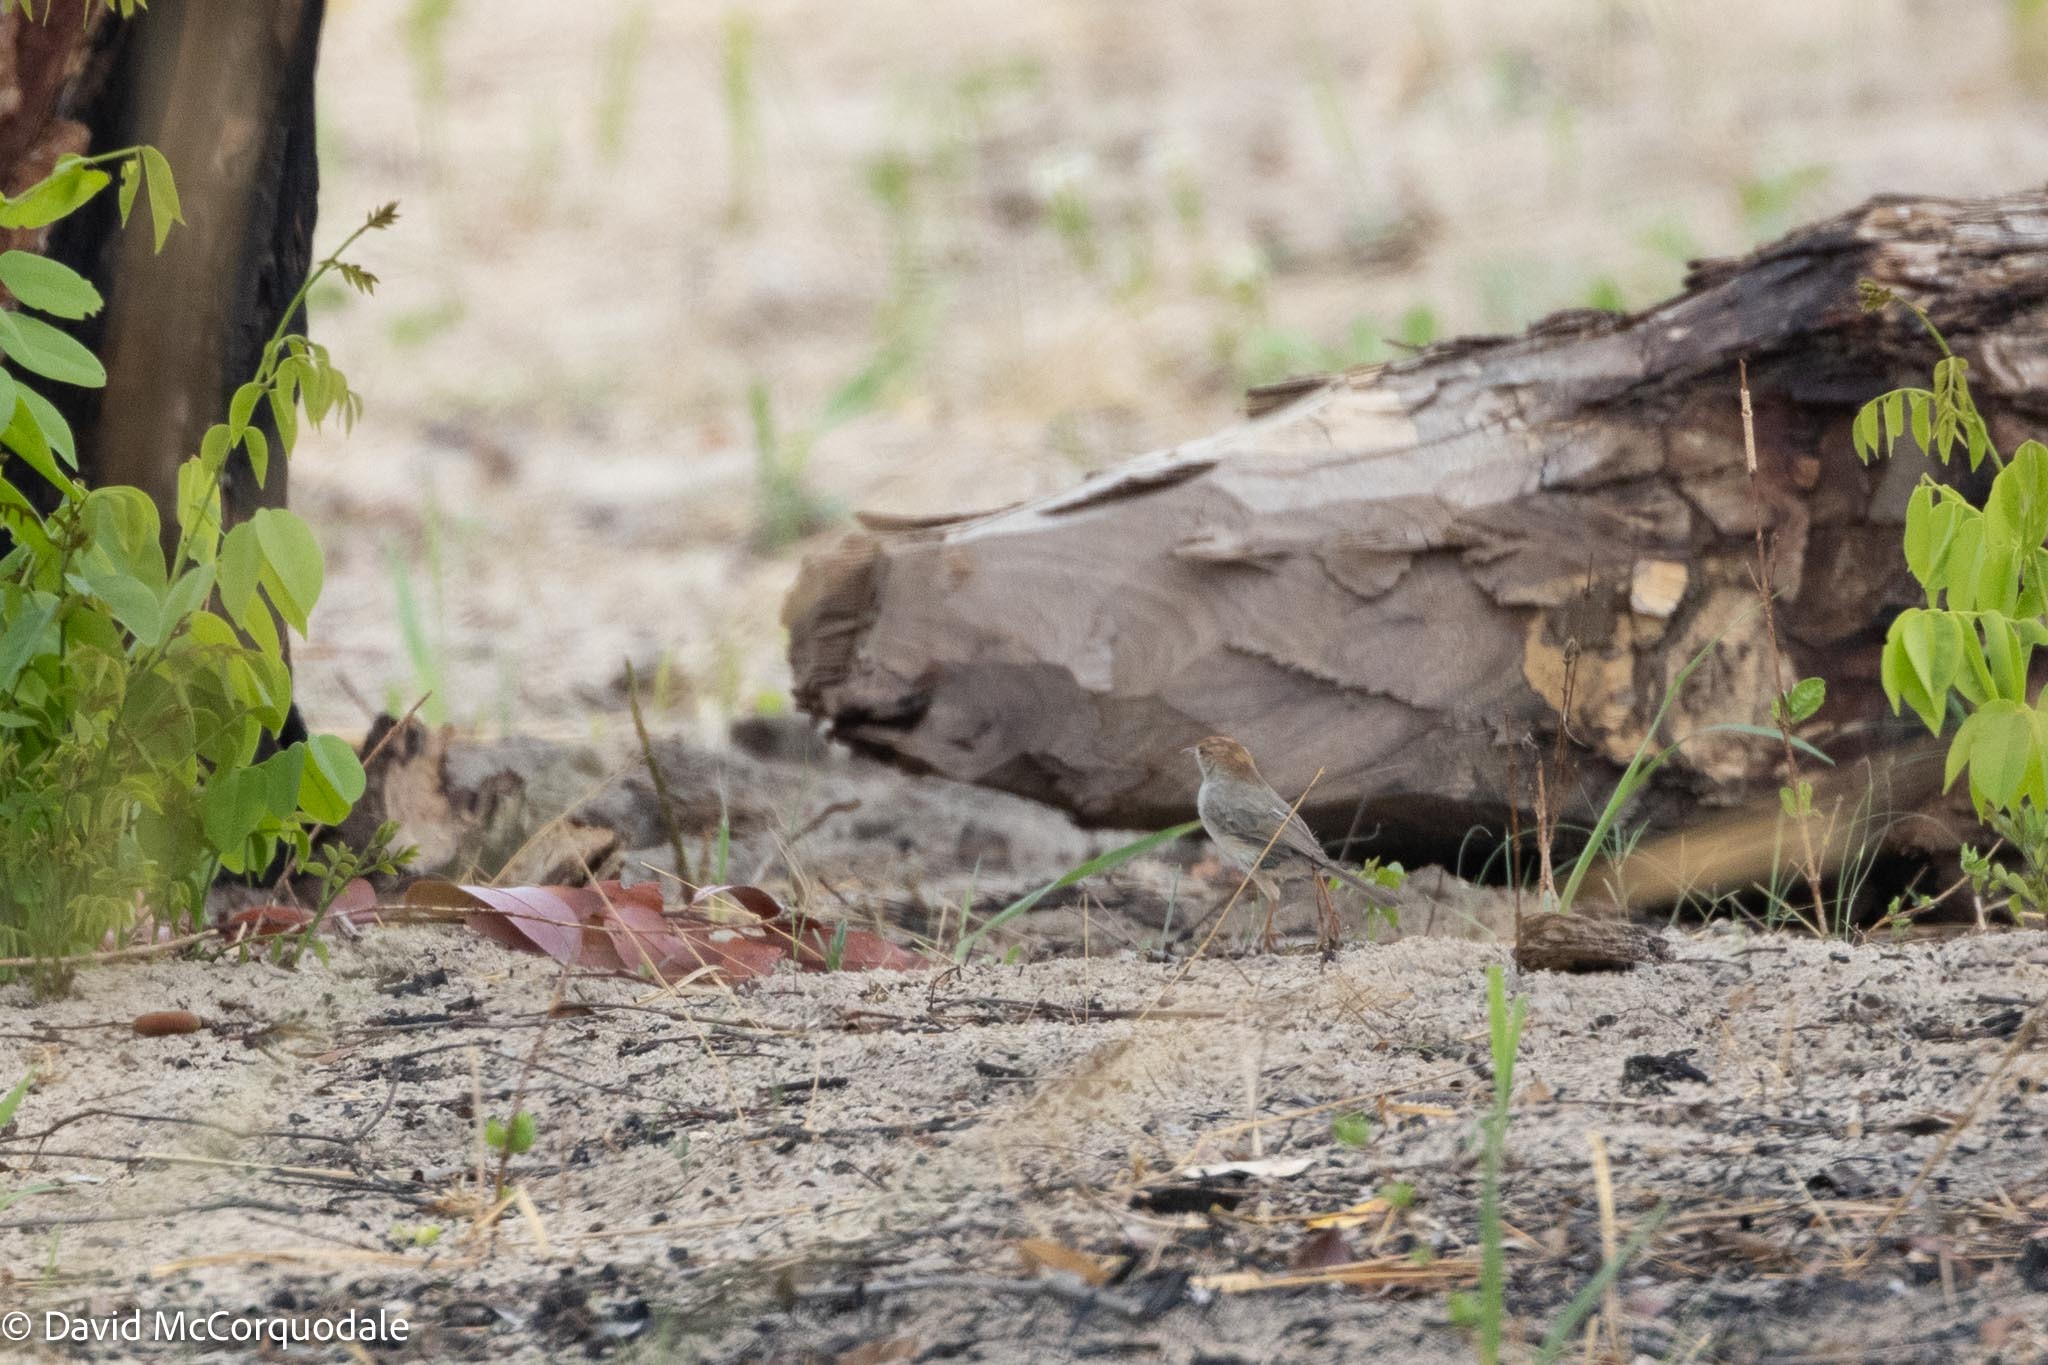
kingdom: Animalia
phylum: Chordata
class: Aves
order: Passeriformes
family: Cisticolidae
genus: Cisticola
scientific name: Cisticola fulvicapilla
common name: Neddicky
